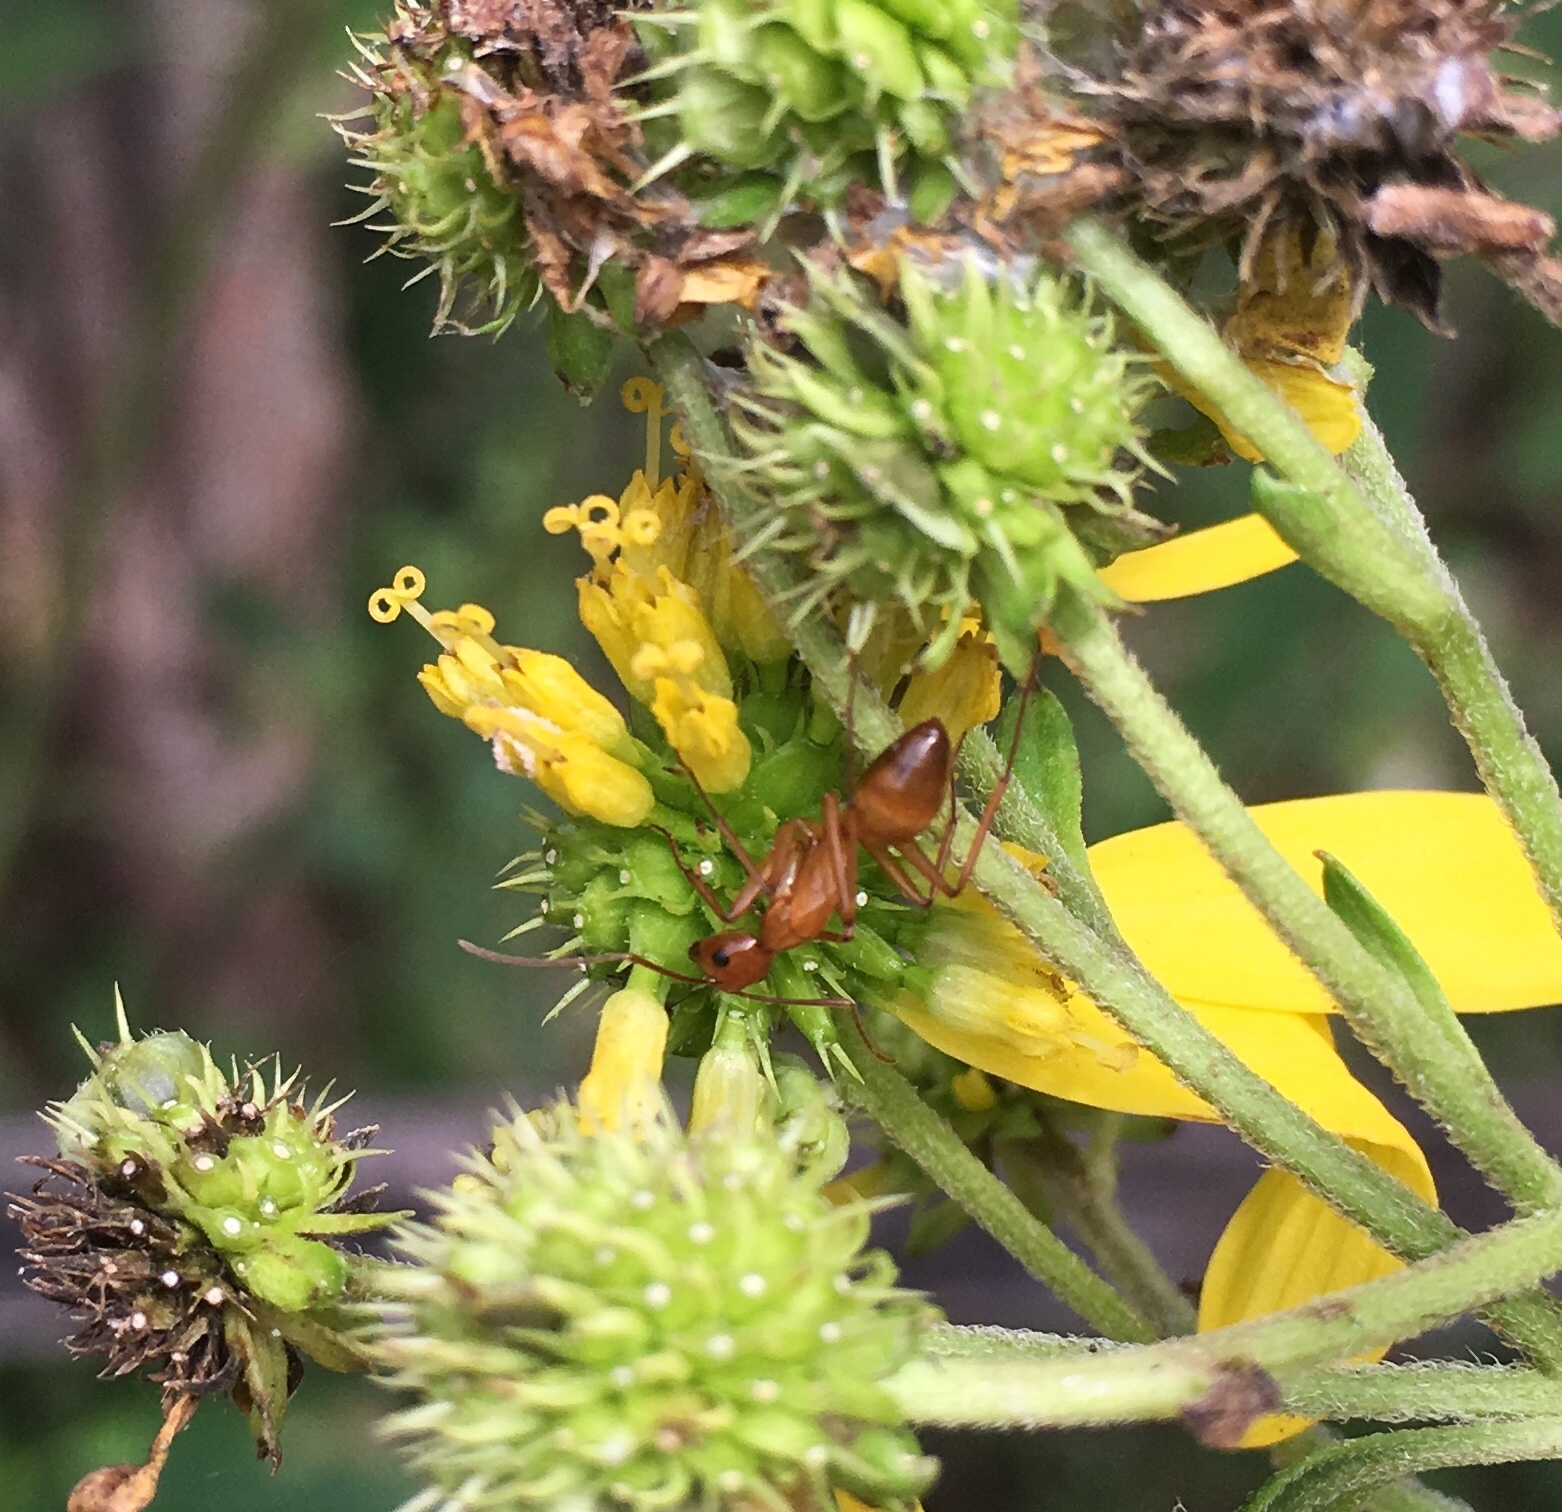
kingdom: Animalia
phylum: Arthropoda
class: Insecta
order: Hymenoptera
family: Formicidae
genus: Camponotus
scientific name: Camponotus castaneus
